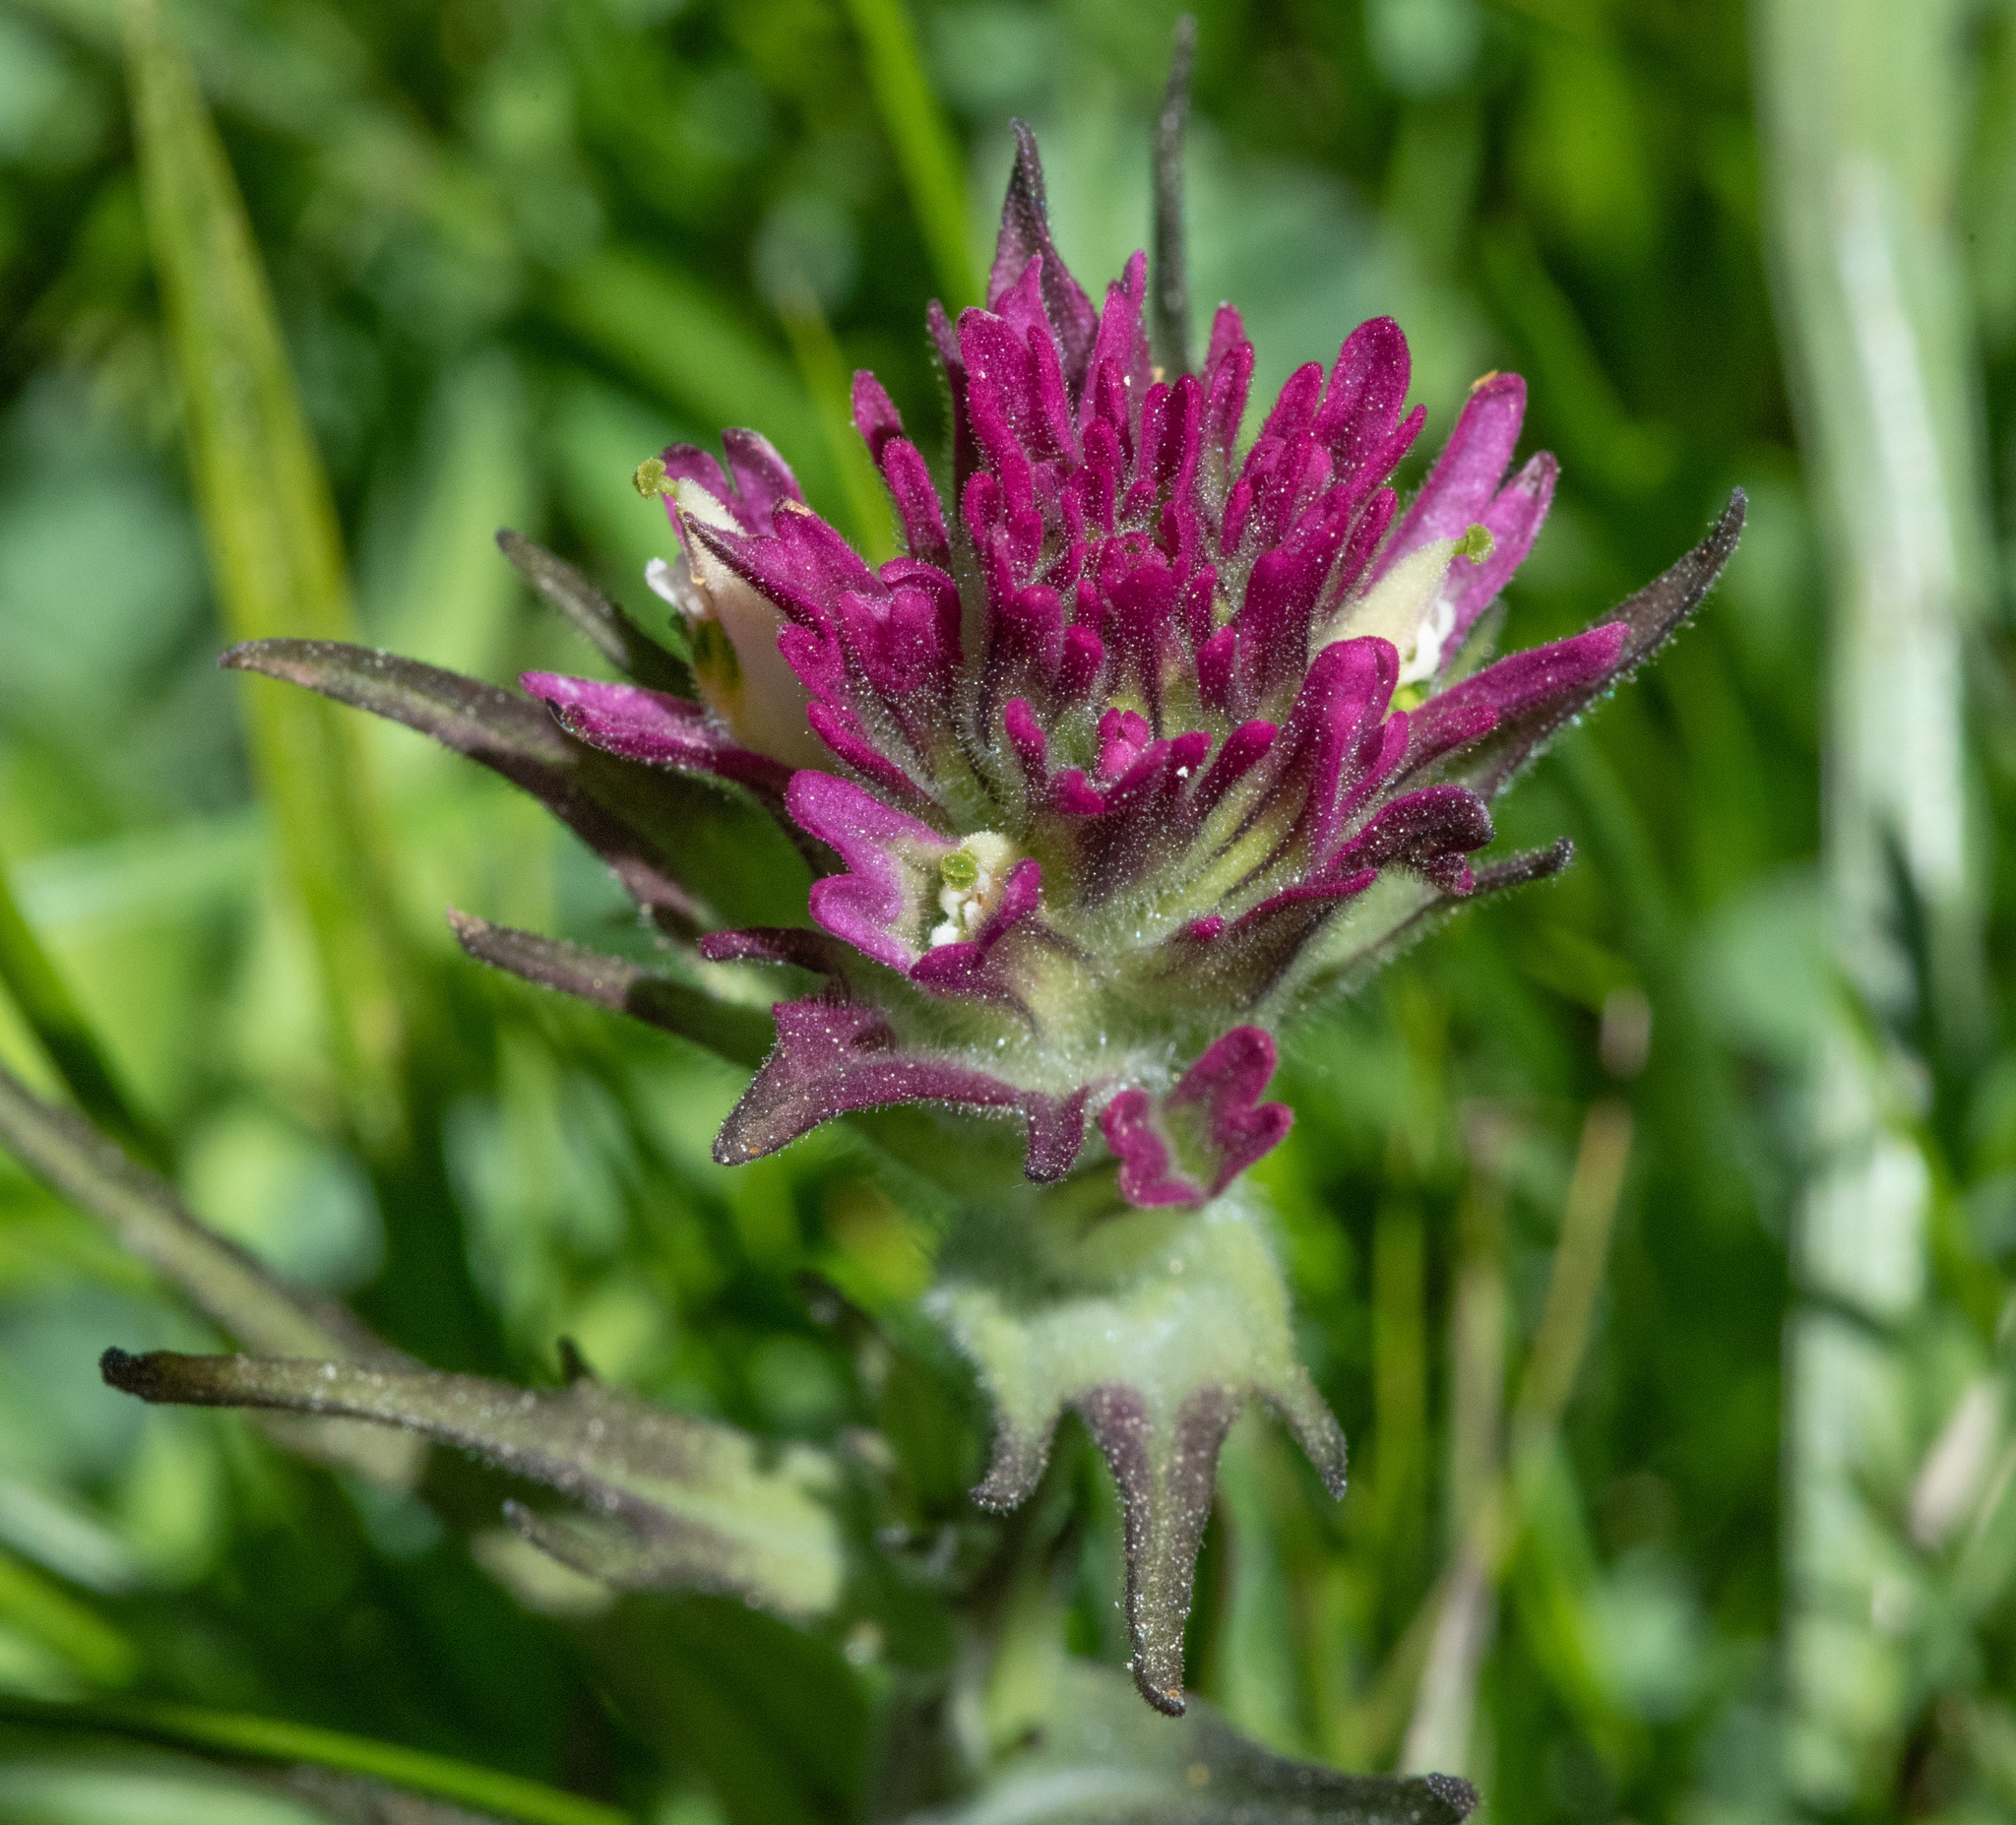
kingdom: Plantae
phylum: Tracheophyta
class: Magnoliopsida
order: Lamiales
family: Orobanchaceae
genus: Castilleja
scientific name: Castilleja lassenensis
